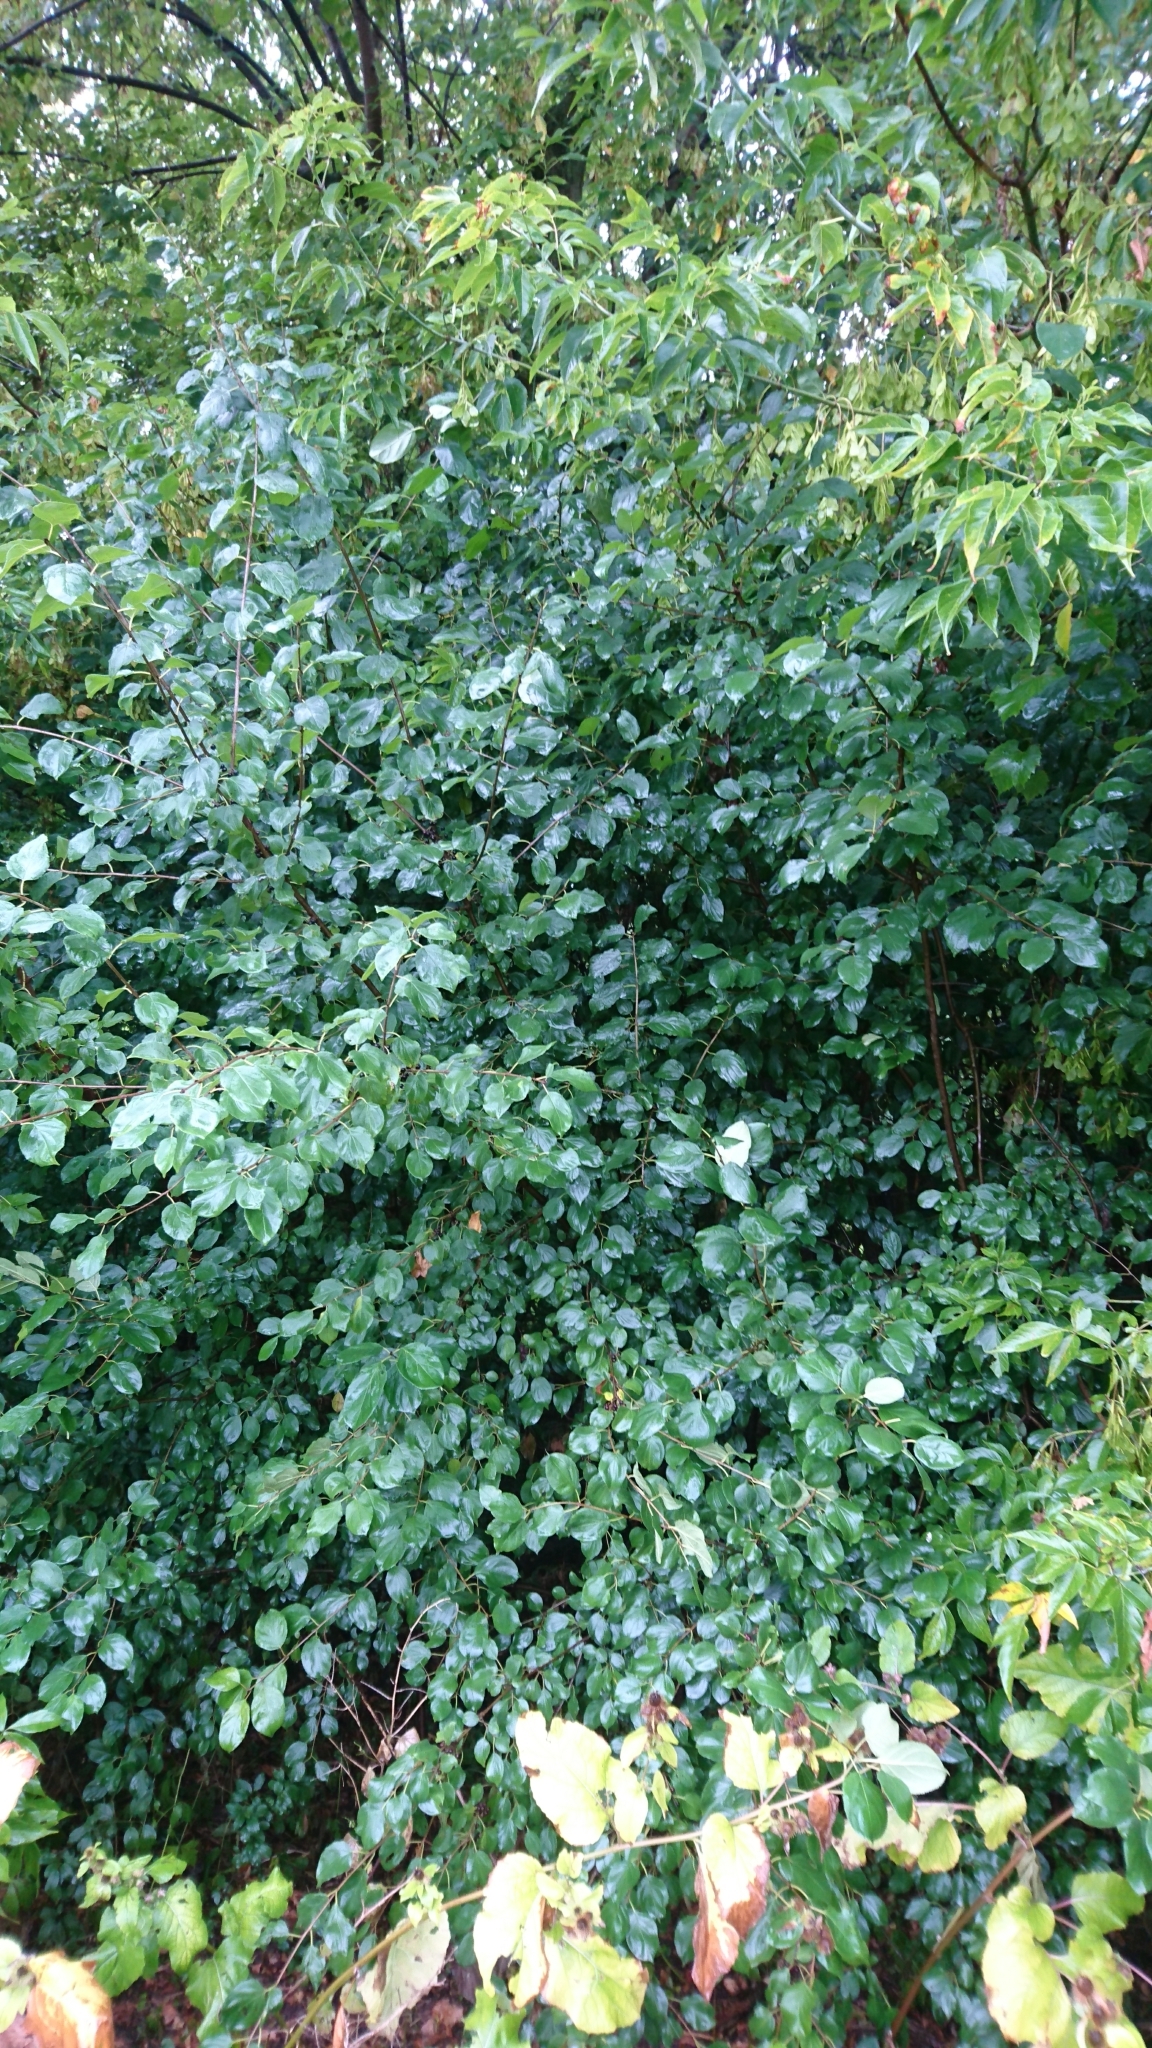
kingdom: Plantae
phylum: Tracheophyta
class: Magnoliopsida
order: Rosales
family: Rhamnaceae
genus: Rhamnus
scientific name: Rhamnus cathartica
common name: Common buckthorn
